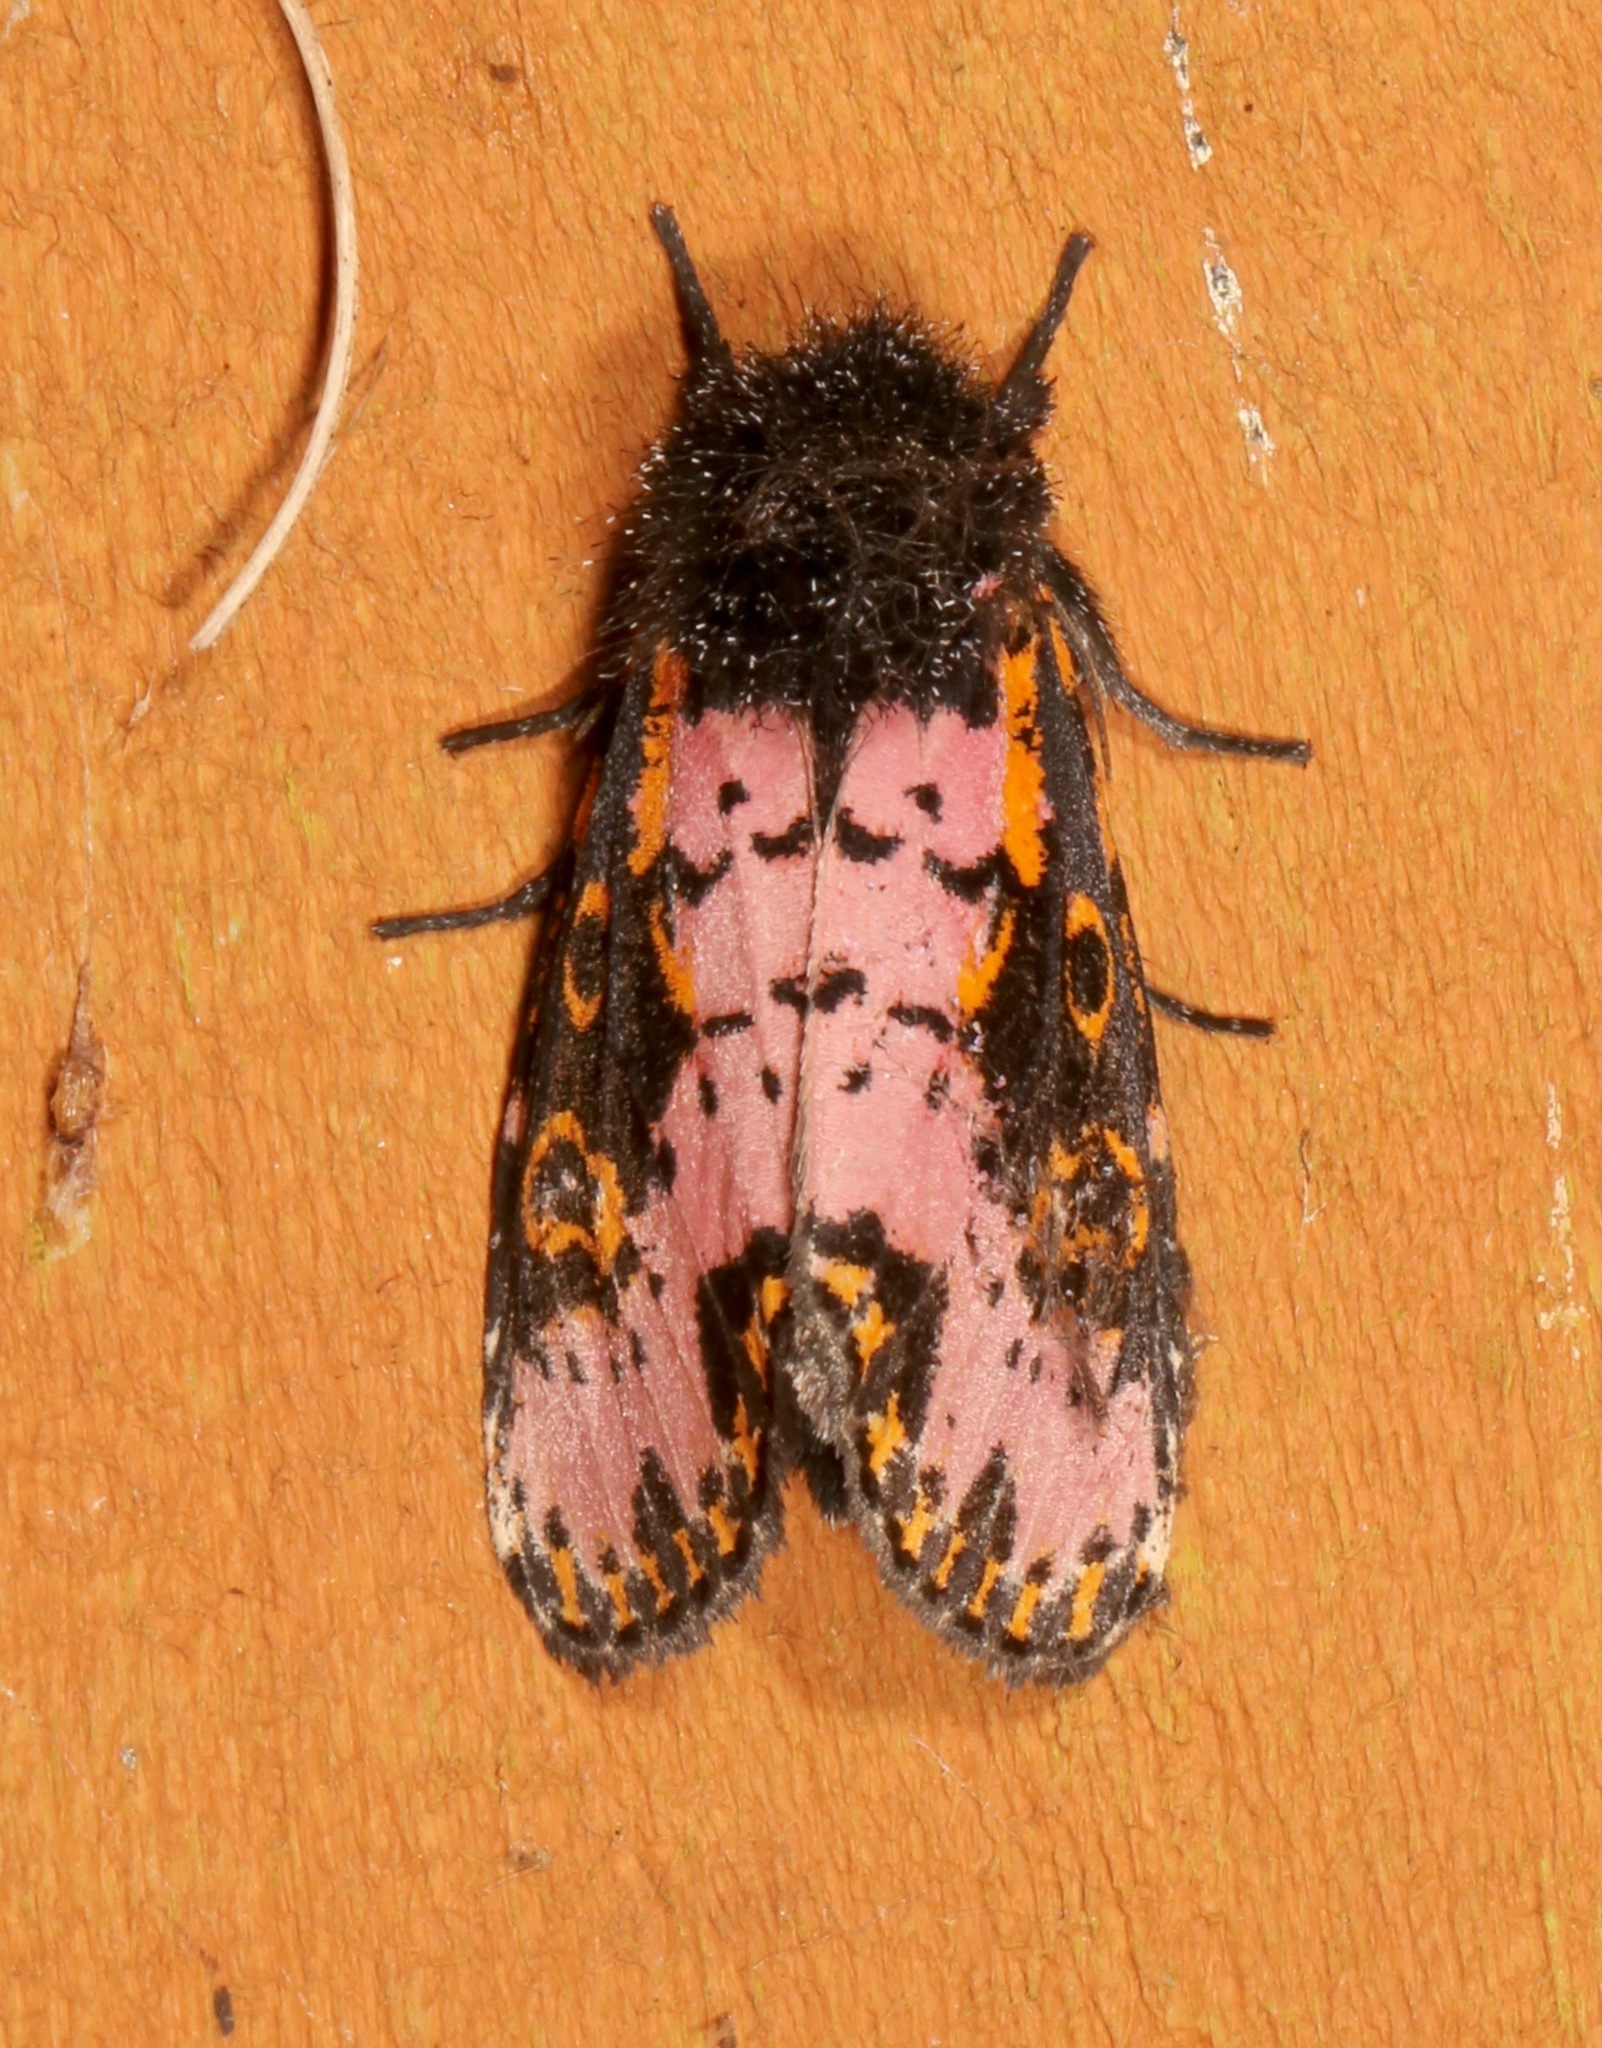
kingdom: Animalia
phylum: Arthropoda
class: Insecta
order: Lepidoptera
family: Noctuidae
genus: Xanthopastis
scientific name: Xanthopastis regnatrix
